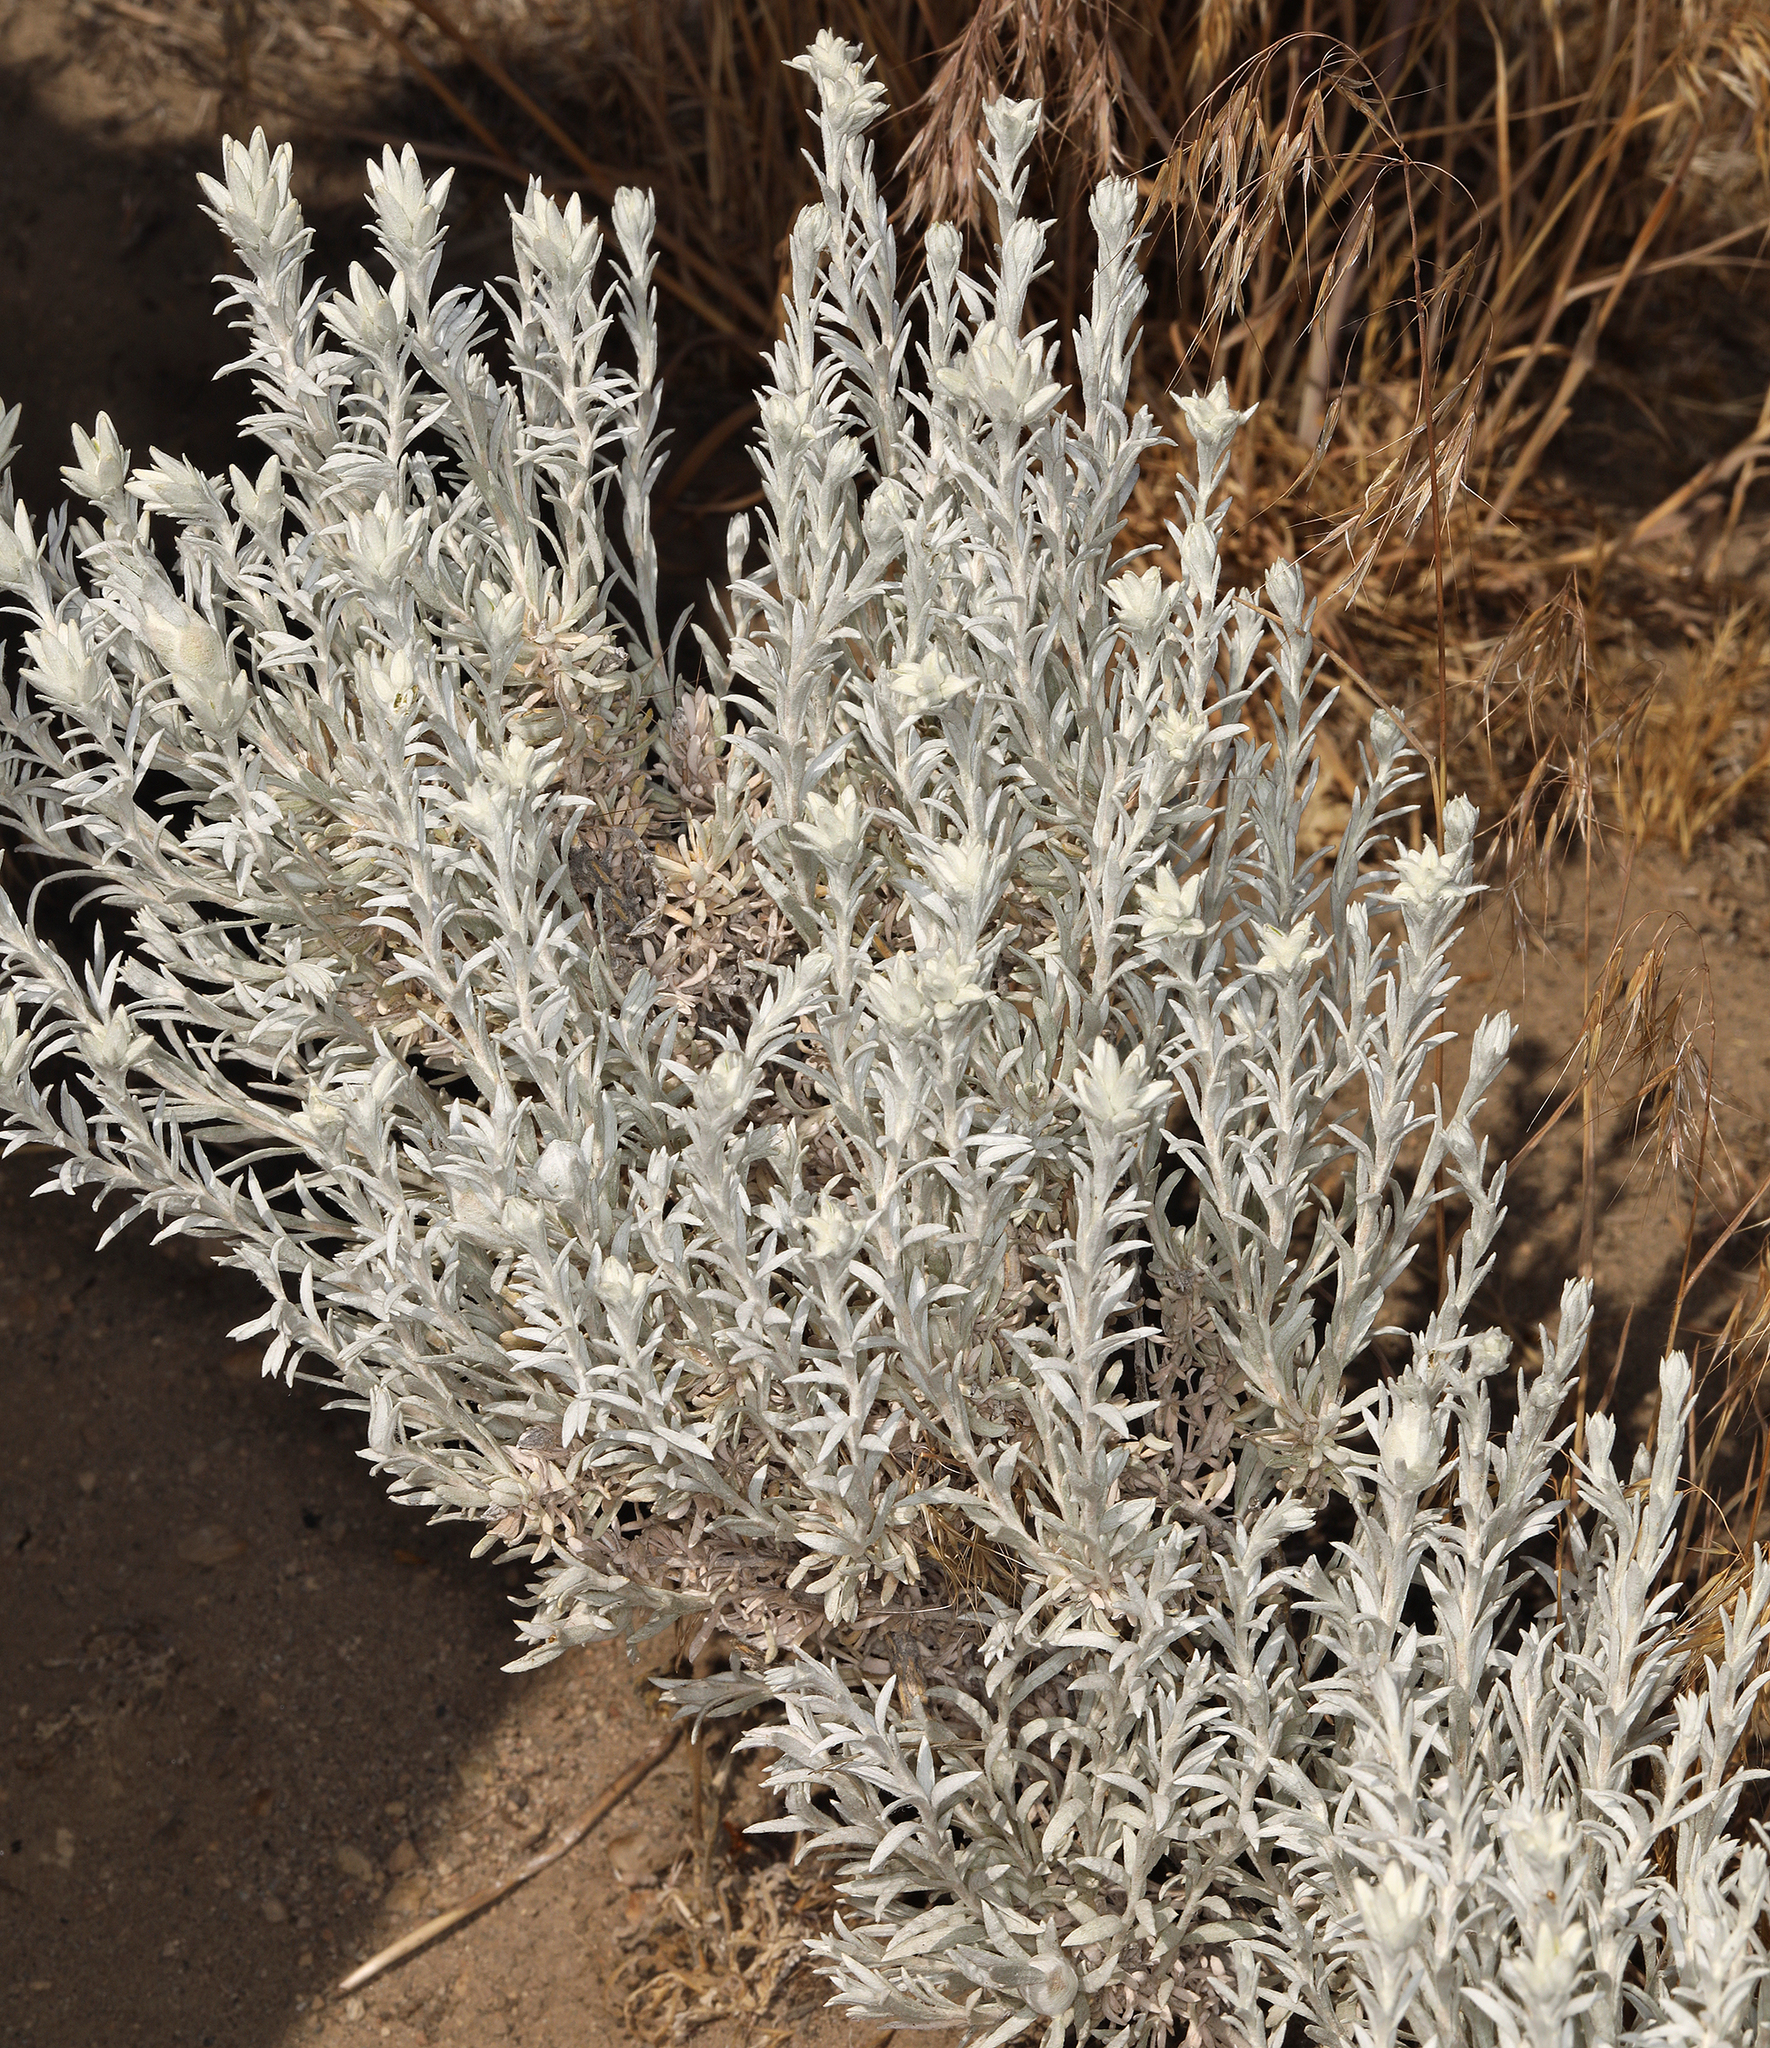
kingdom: Plantae
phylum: Tracheophyta
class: Magnoliopsida
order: Asterales
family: Asteraceae
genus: Tetradymia
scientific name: Tetradymia canescens
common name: Spineless horsebrush
